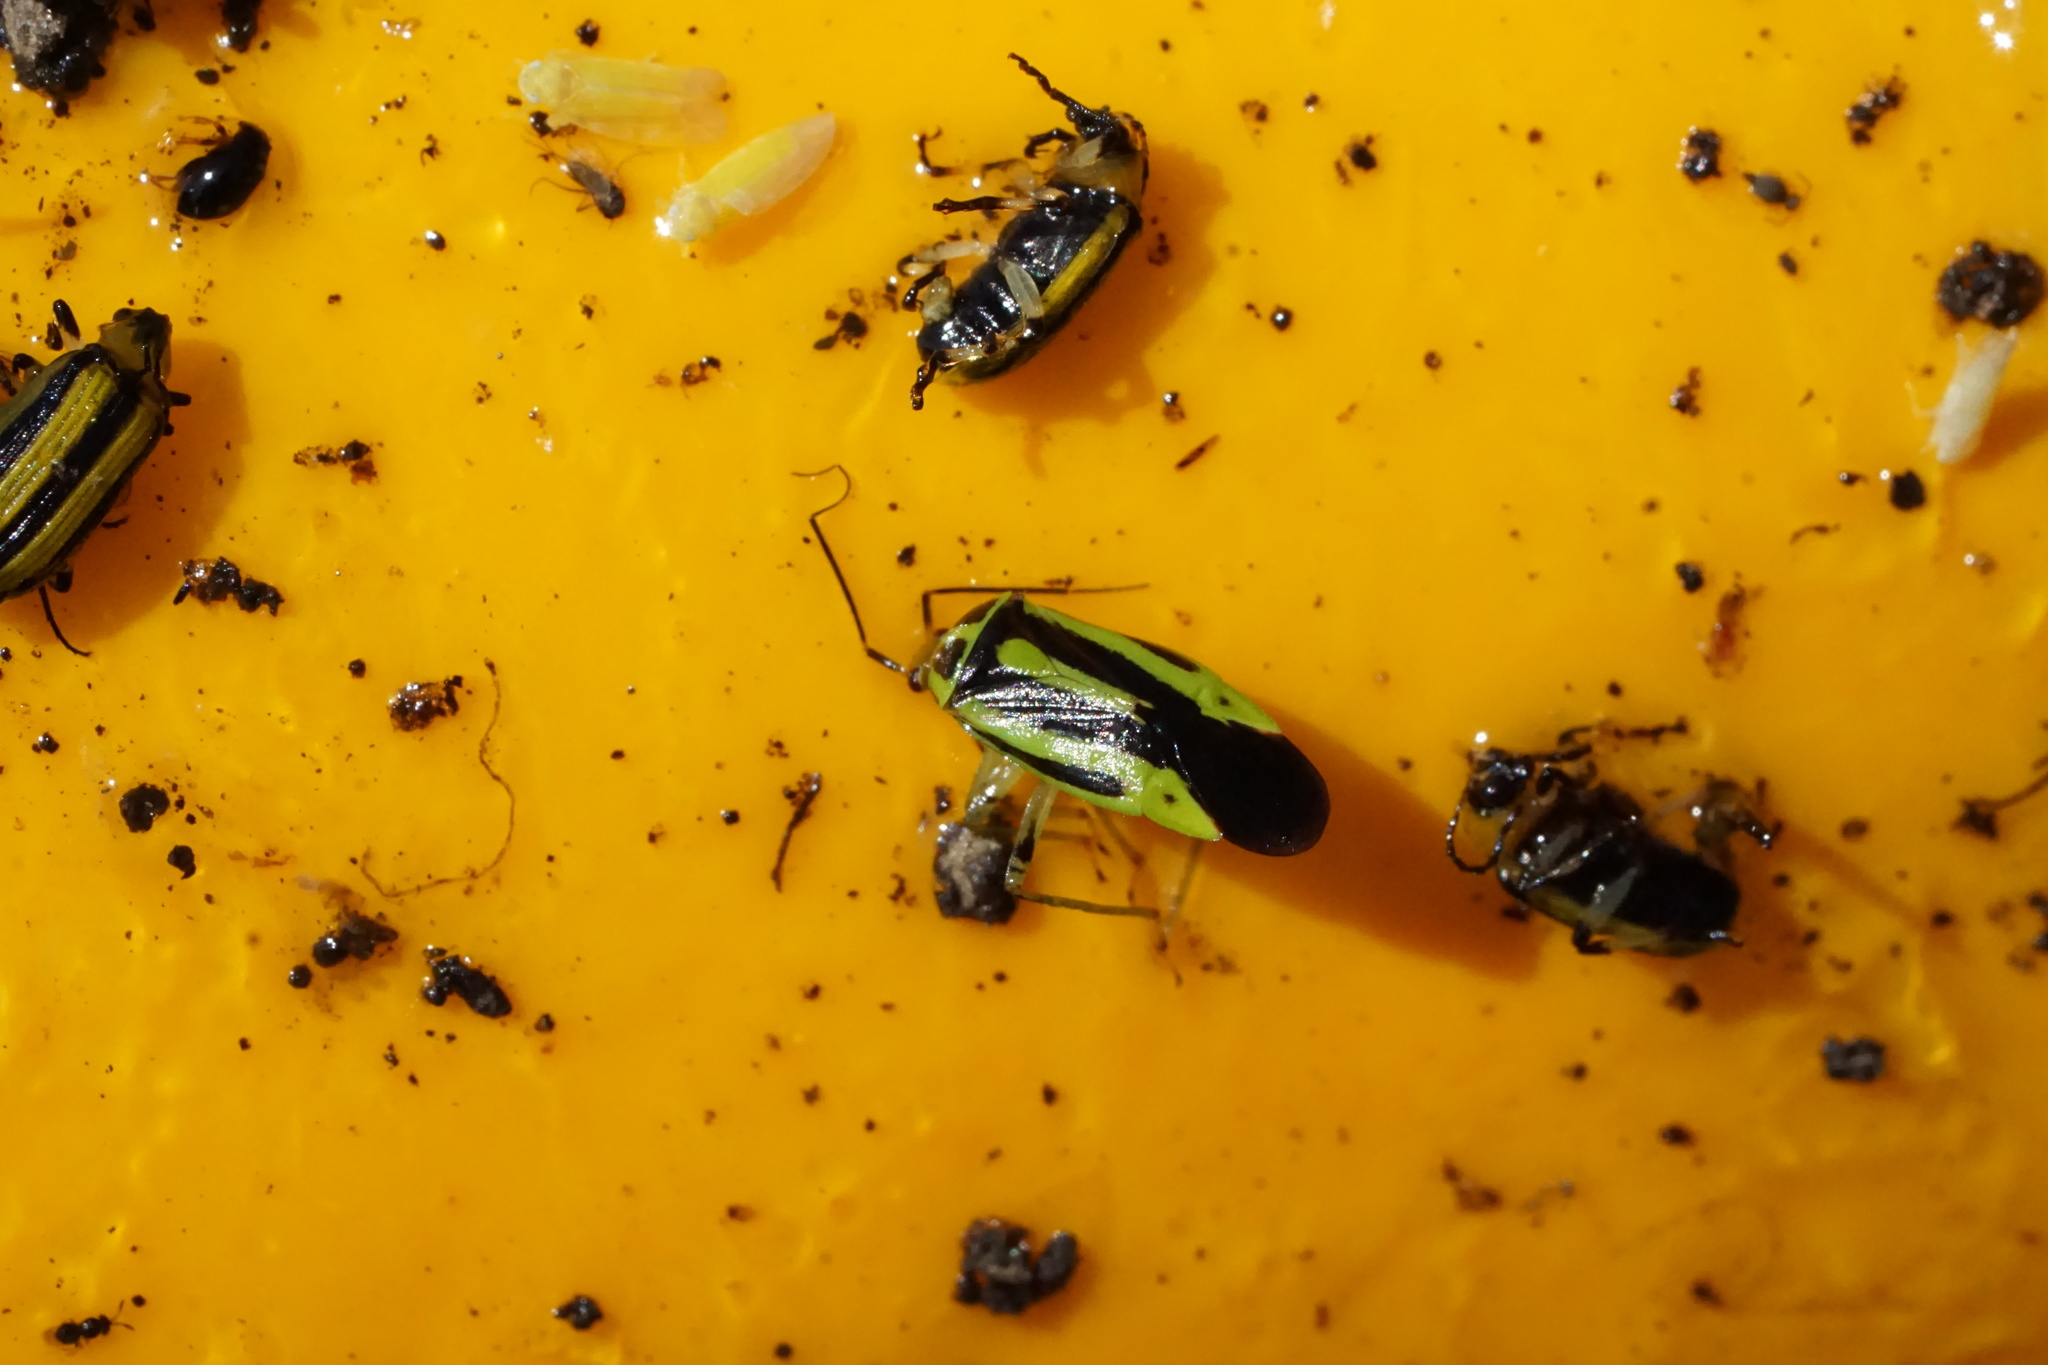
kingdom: Animalia
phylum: Arthropoda
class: Insecta
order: Hemiptera
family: Miridae
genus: Poecilocapsus
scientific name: Poecilocapsus lineatus
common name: Four-lined plant bug
